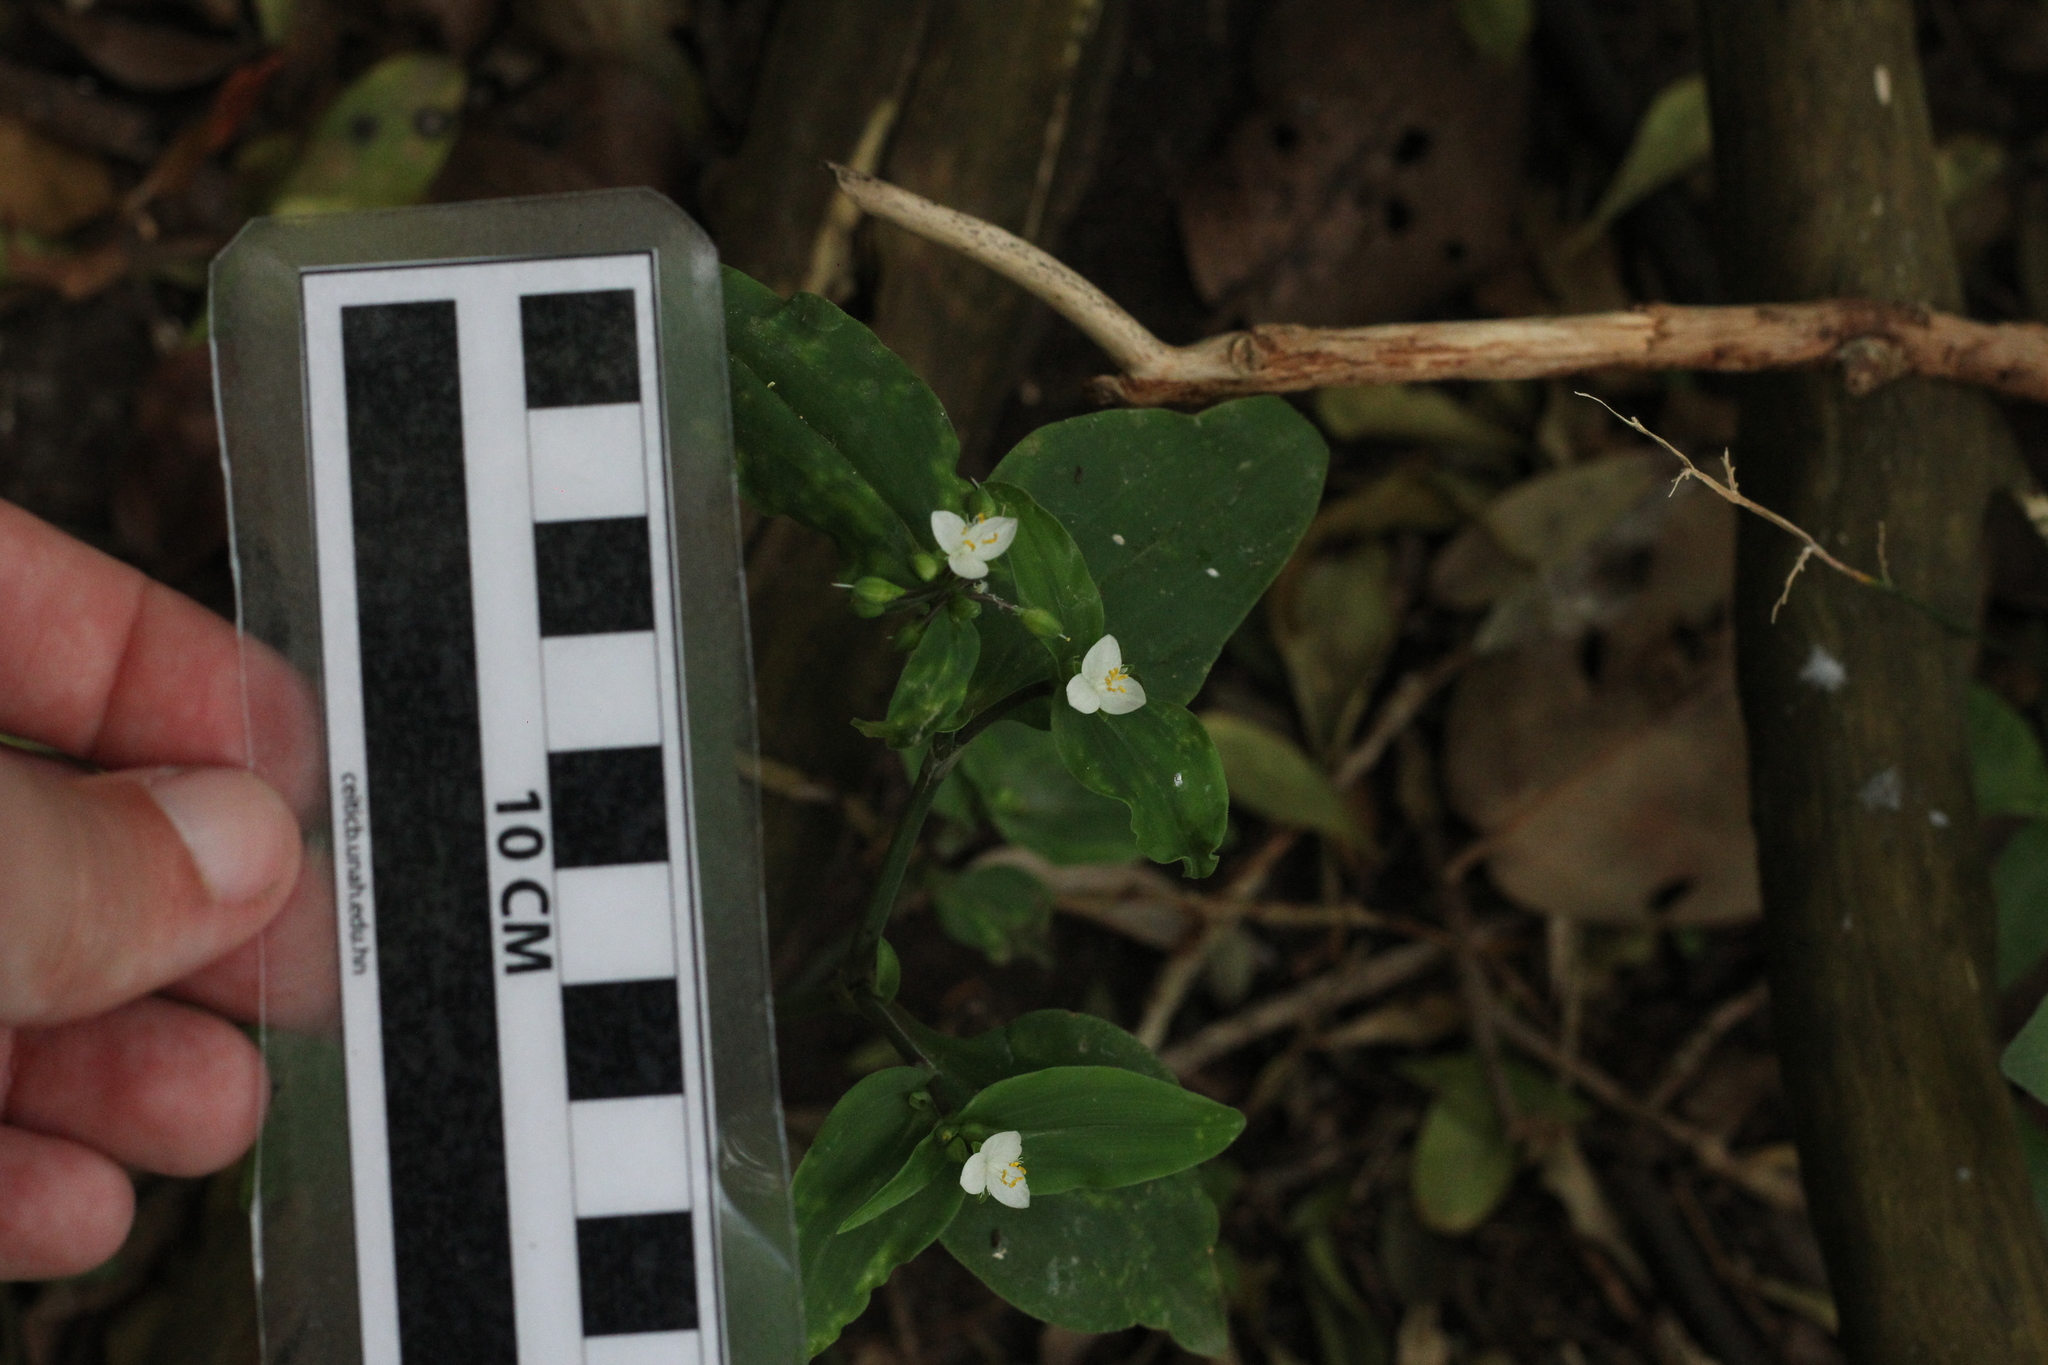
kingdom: Plantae
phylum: Tracheophyta
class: Liliopsida
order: Commelinales
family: Commelinaceae
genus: Tradescantia
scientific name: Tradescantia fluminensis
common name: Wandering-jew
